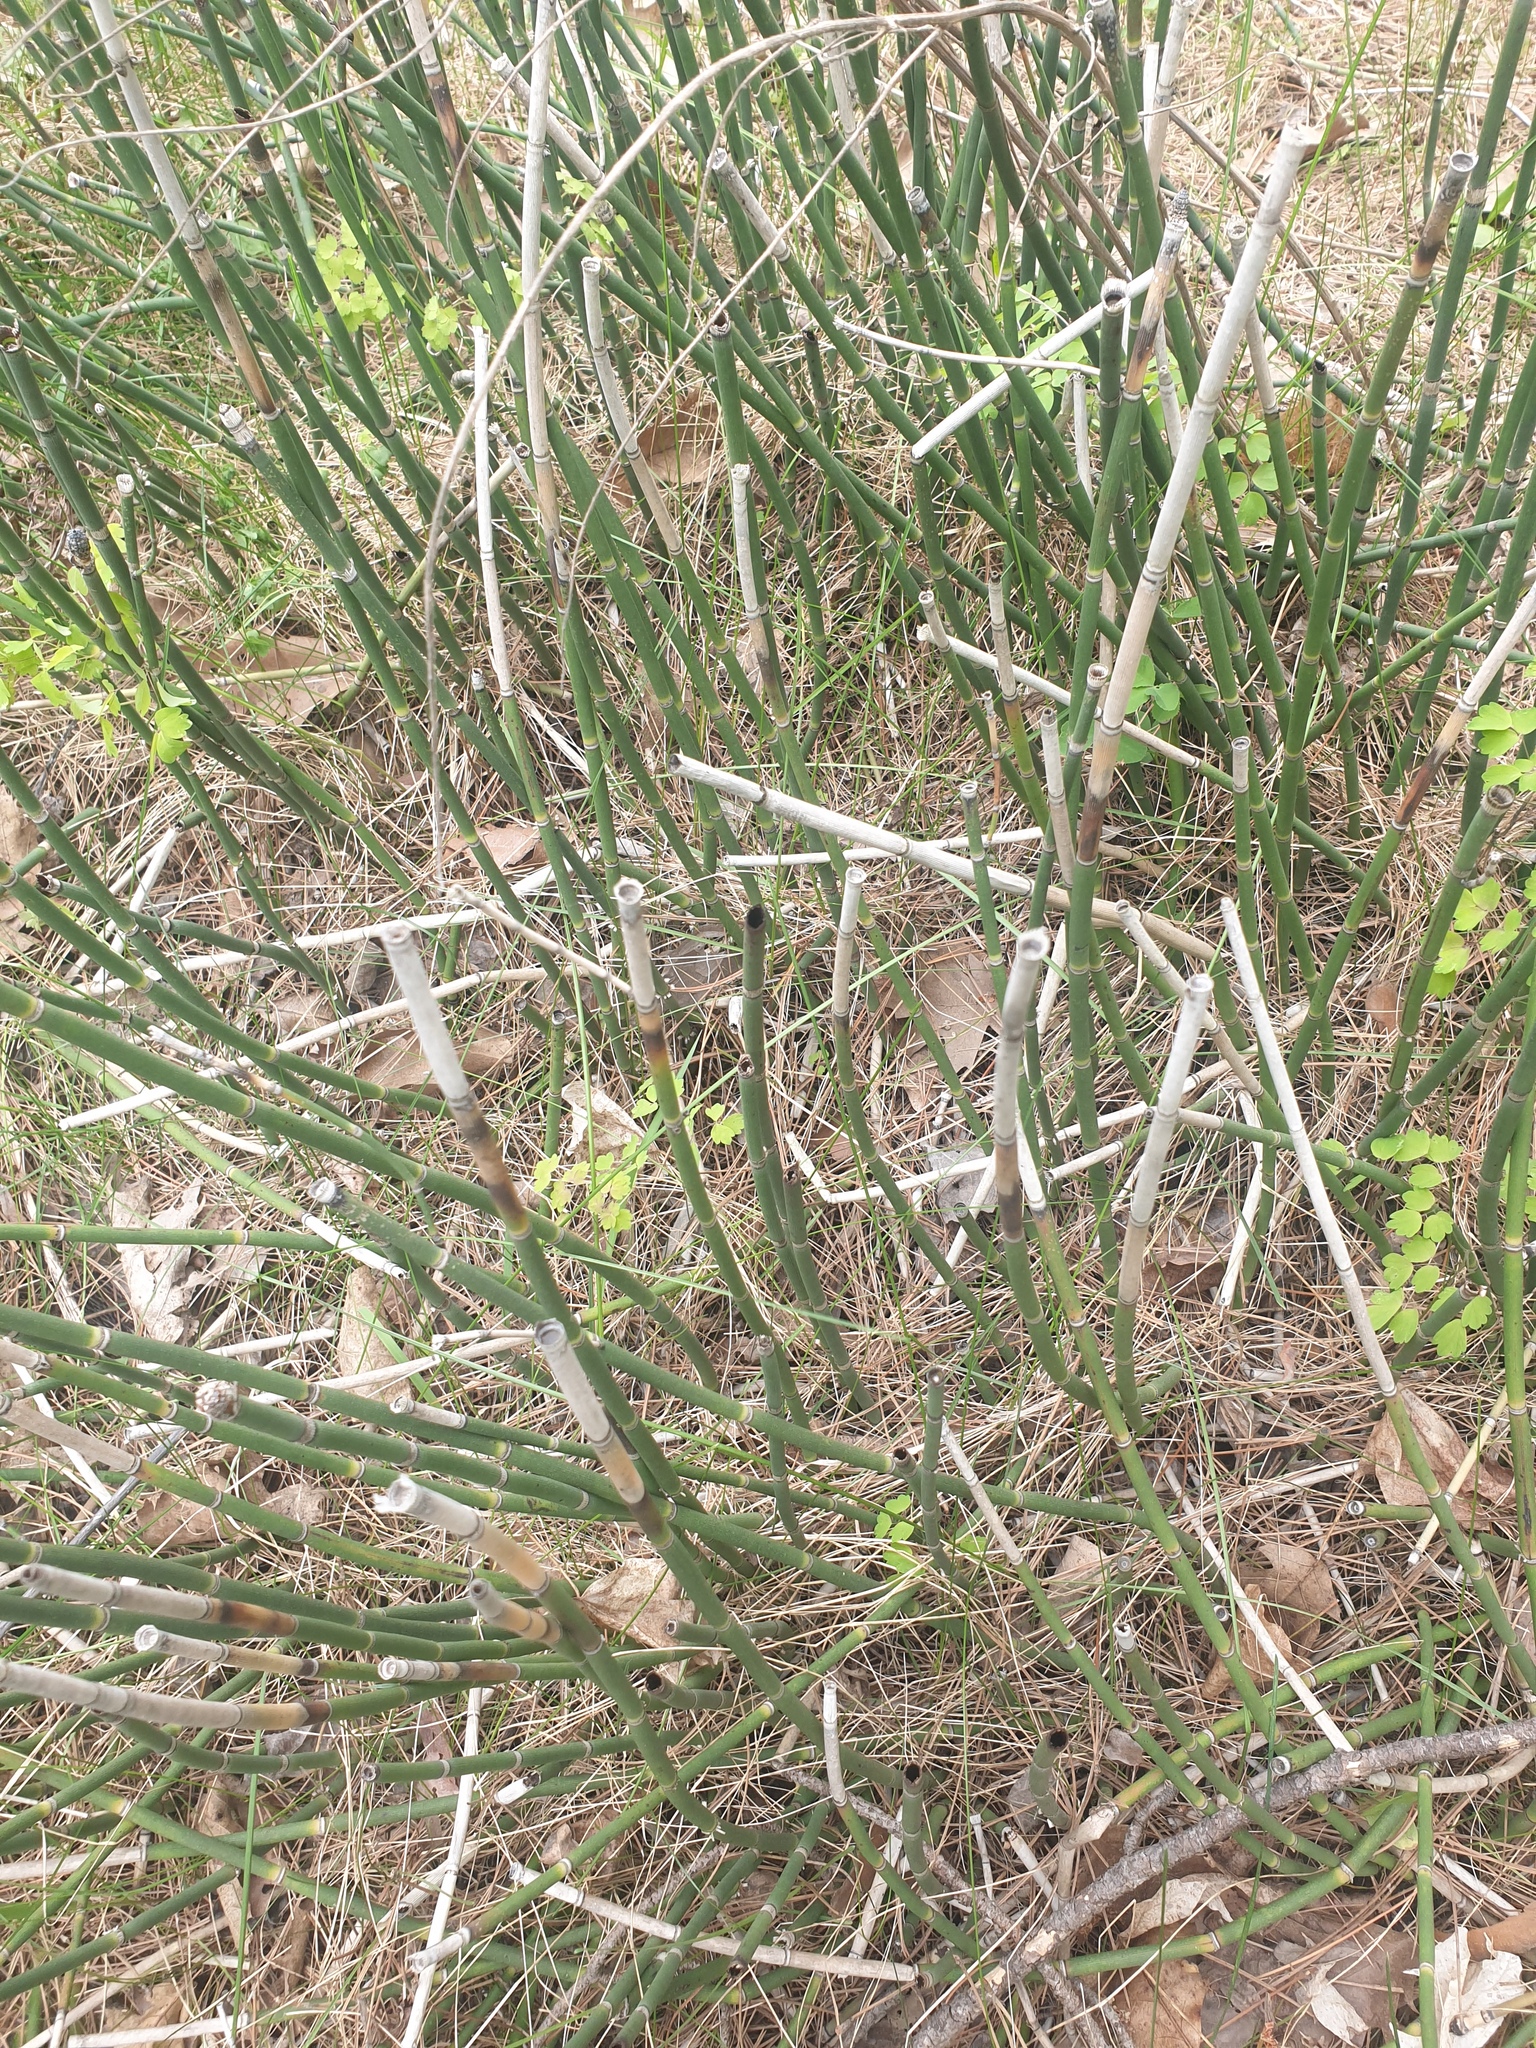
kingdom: Plantae
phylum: Tracheophyta
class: Polypodiopsida
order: Equisetales
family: Equisetaceae
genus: Equisetum
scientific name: Equisetum hyemale
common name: Rough horsetail
